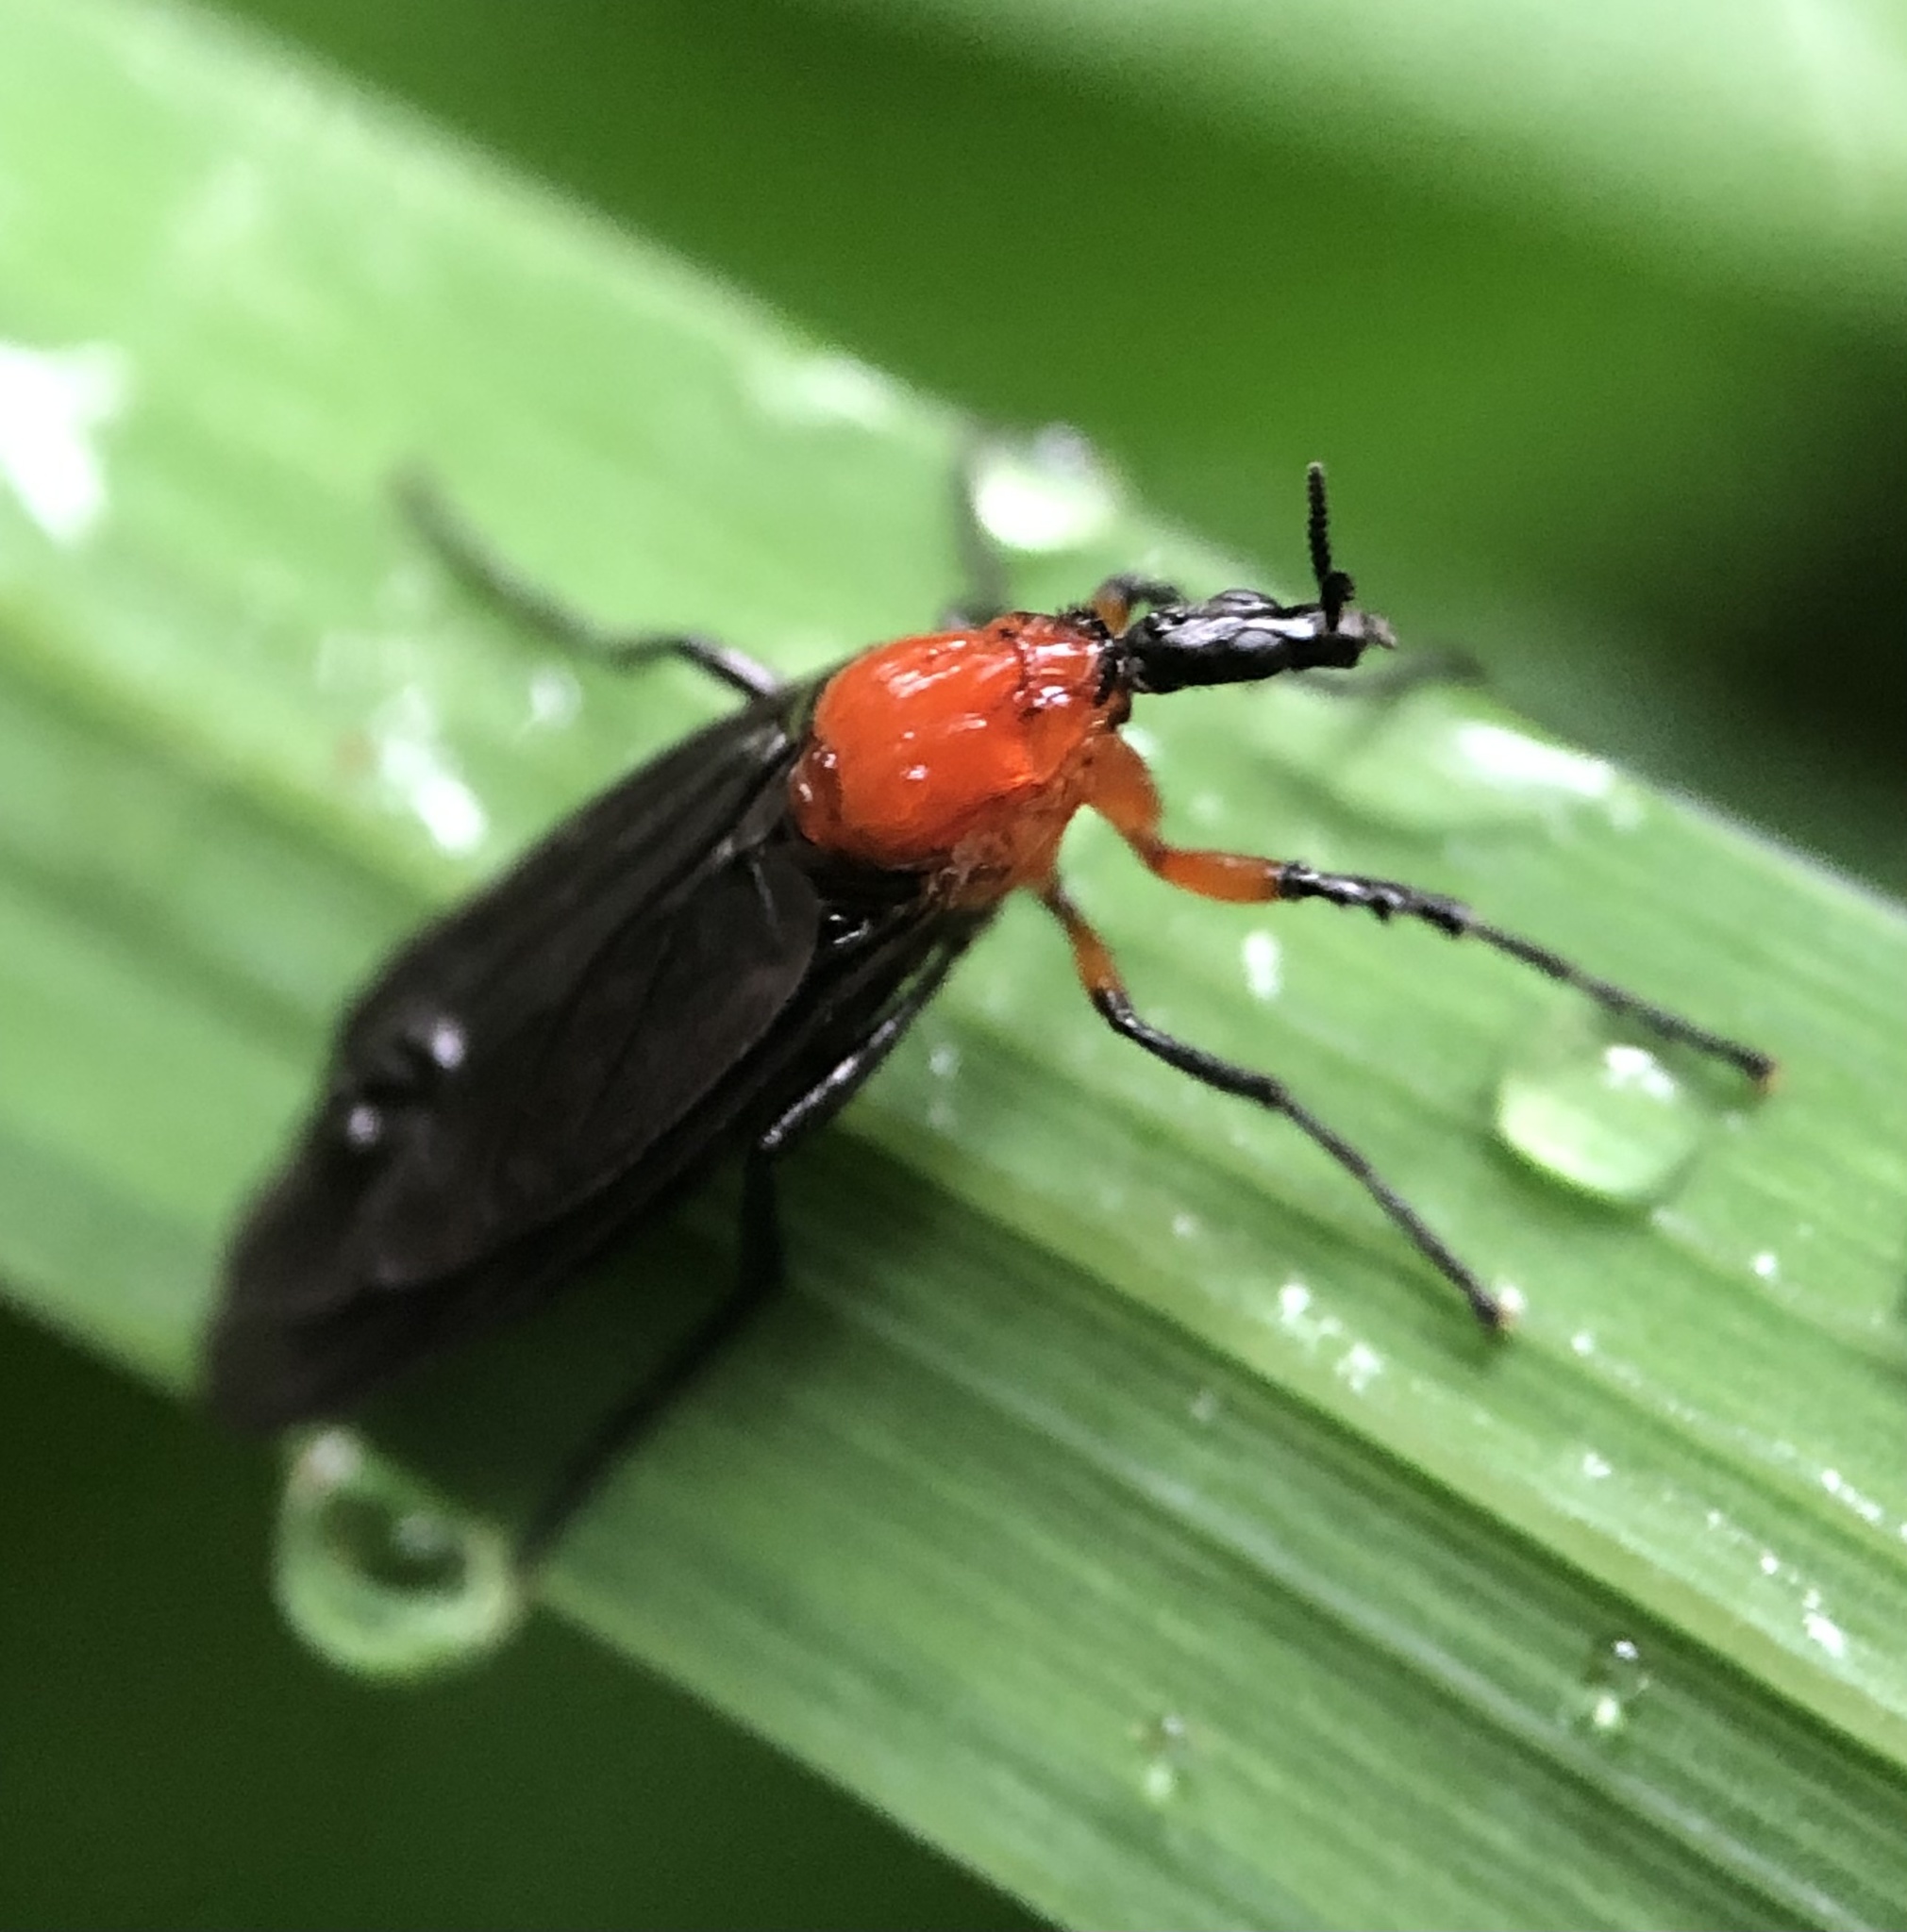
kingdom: Animalia
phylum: Arthropoda
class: Insecta
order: Diptera
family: Bibionidae
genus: Dilophus
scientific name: Dilophus spinipes
